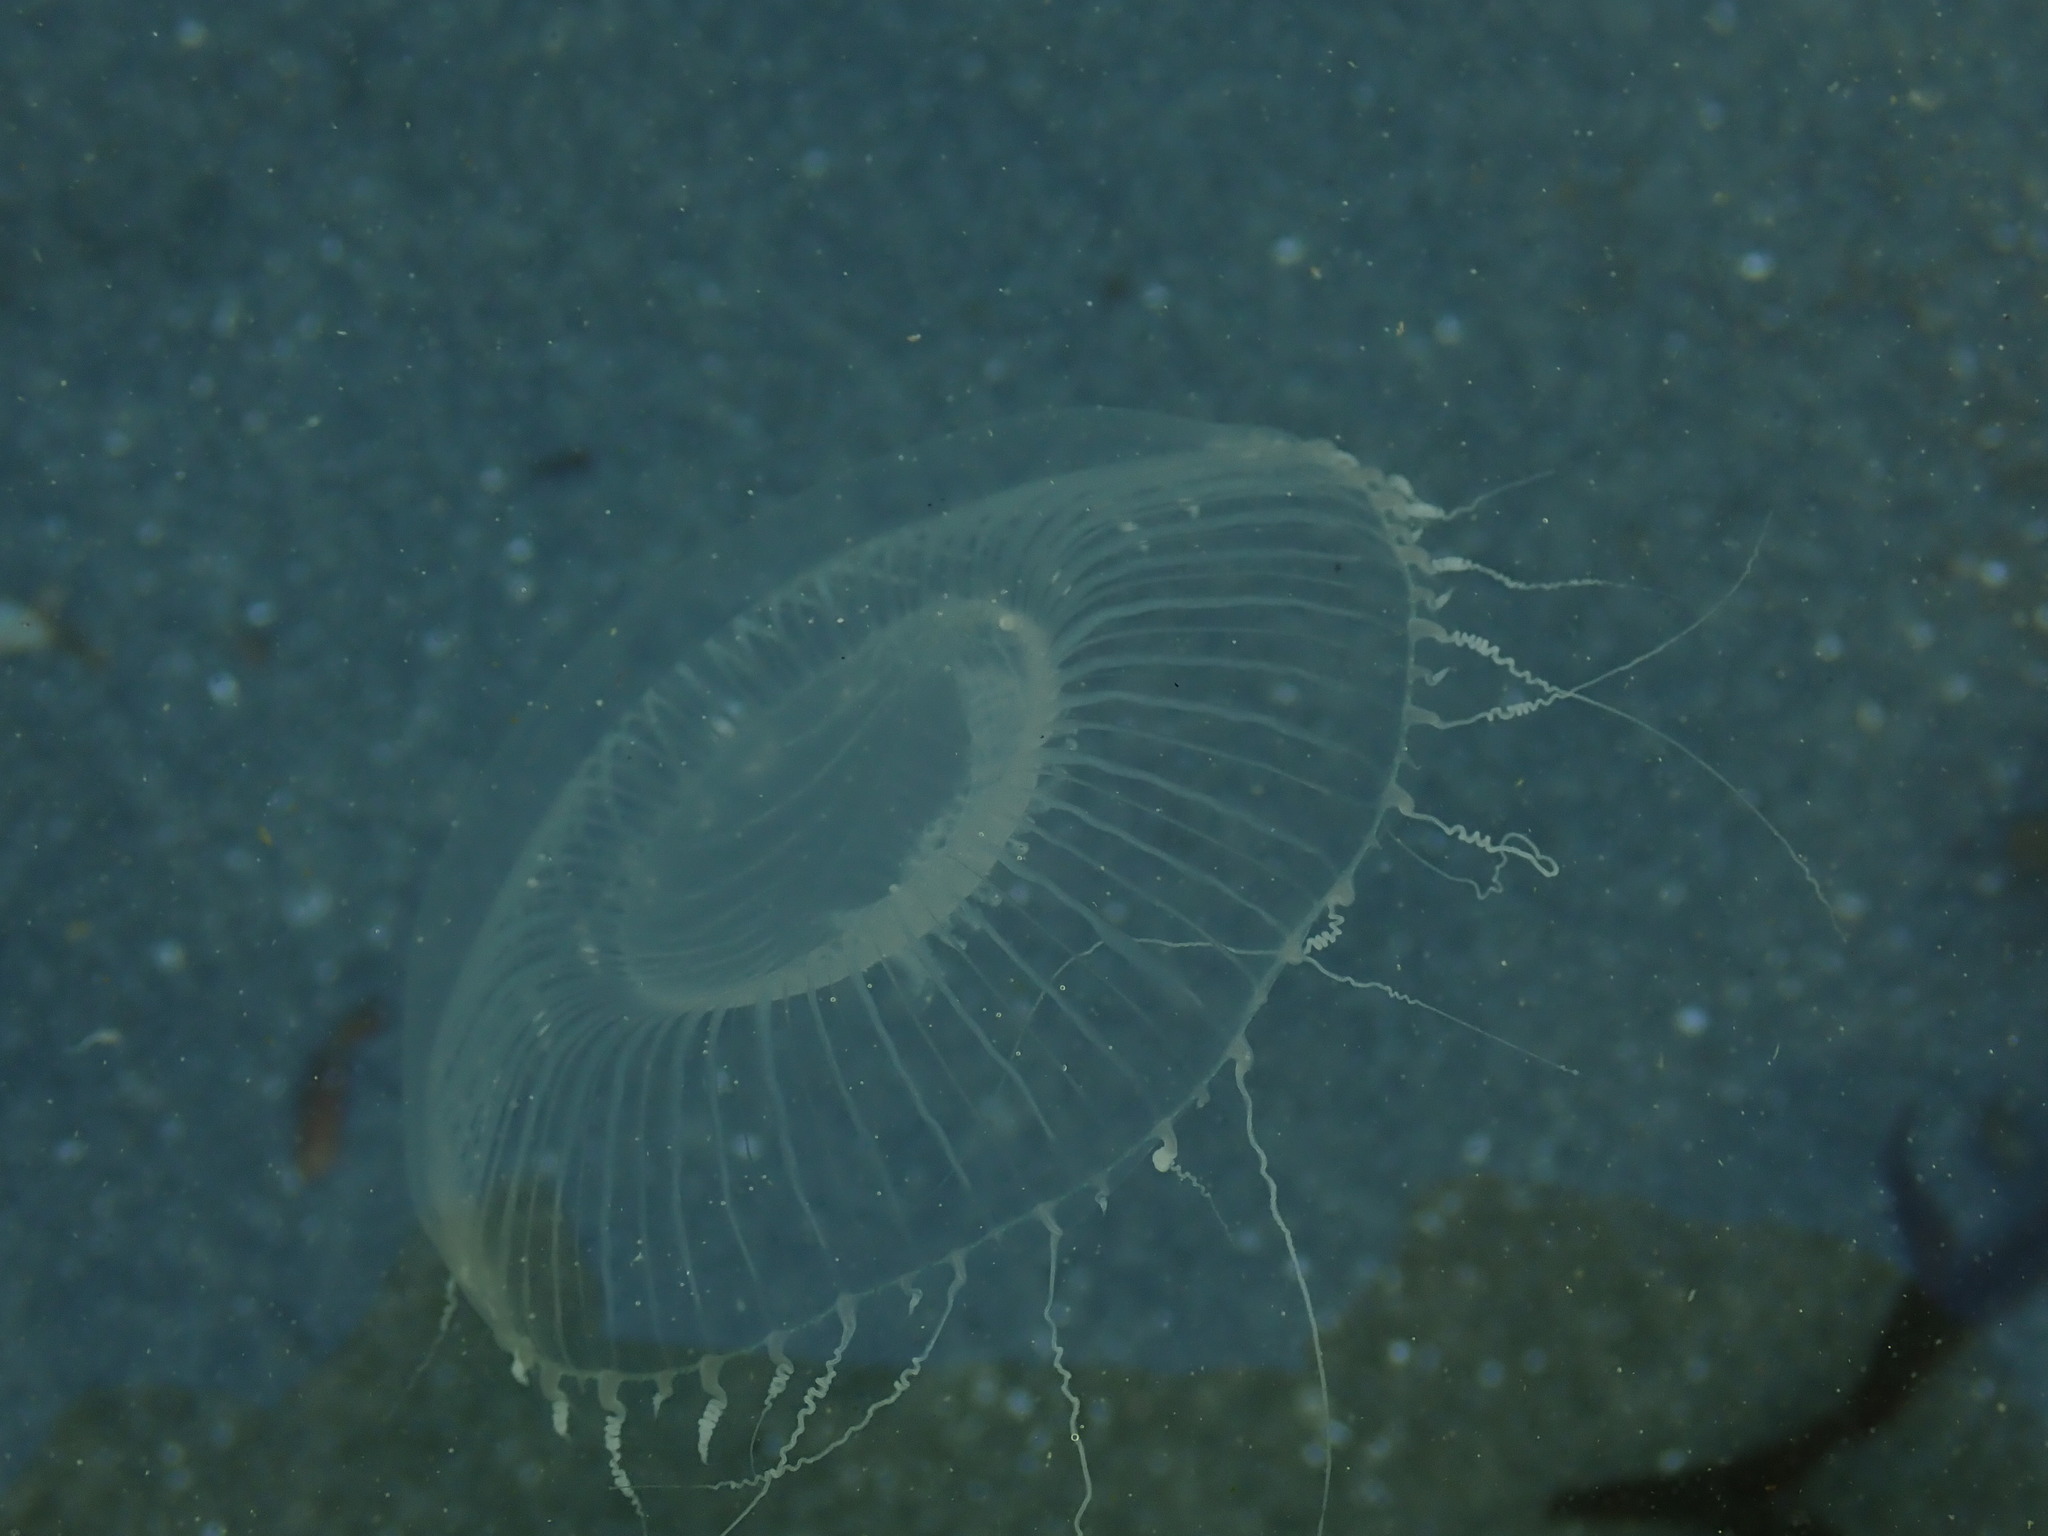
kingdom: Animalia
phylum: Cnidaria
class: Hydrozoa
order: Leptothecata
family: Aequoreidae
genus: Aequorea
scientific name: Aequorea victoria
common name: Water jellyfish
